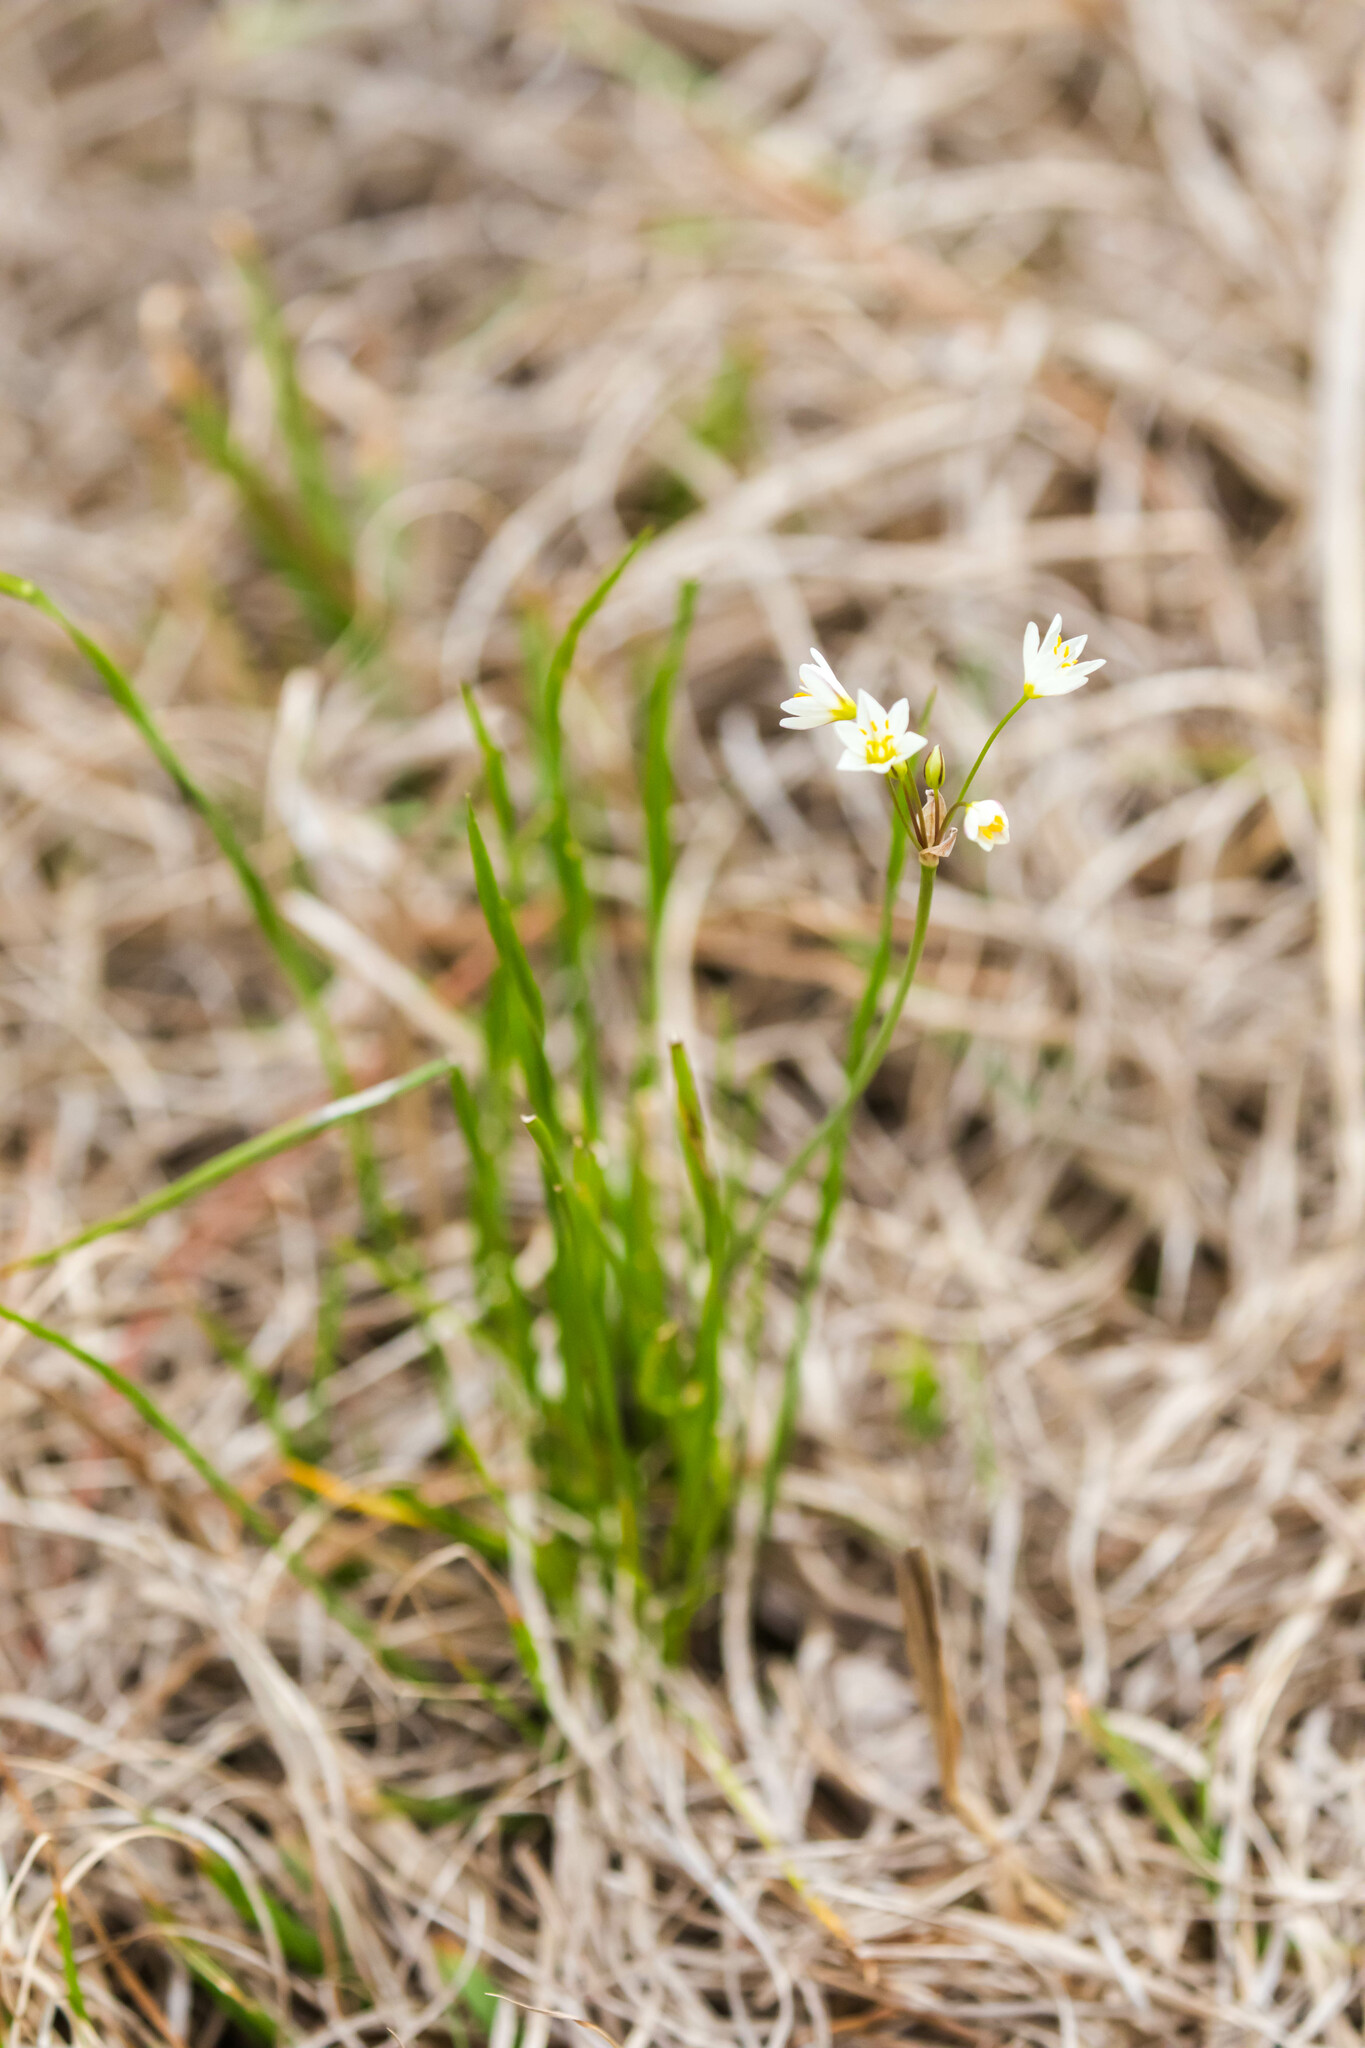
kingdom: Plantae
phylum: Tracheophyta
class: Liliopsida
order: Asparagales
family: Amaryllidaceae
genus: Nothoscordum
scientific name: Nothoscordum bivalve
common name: Crow-poison
